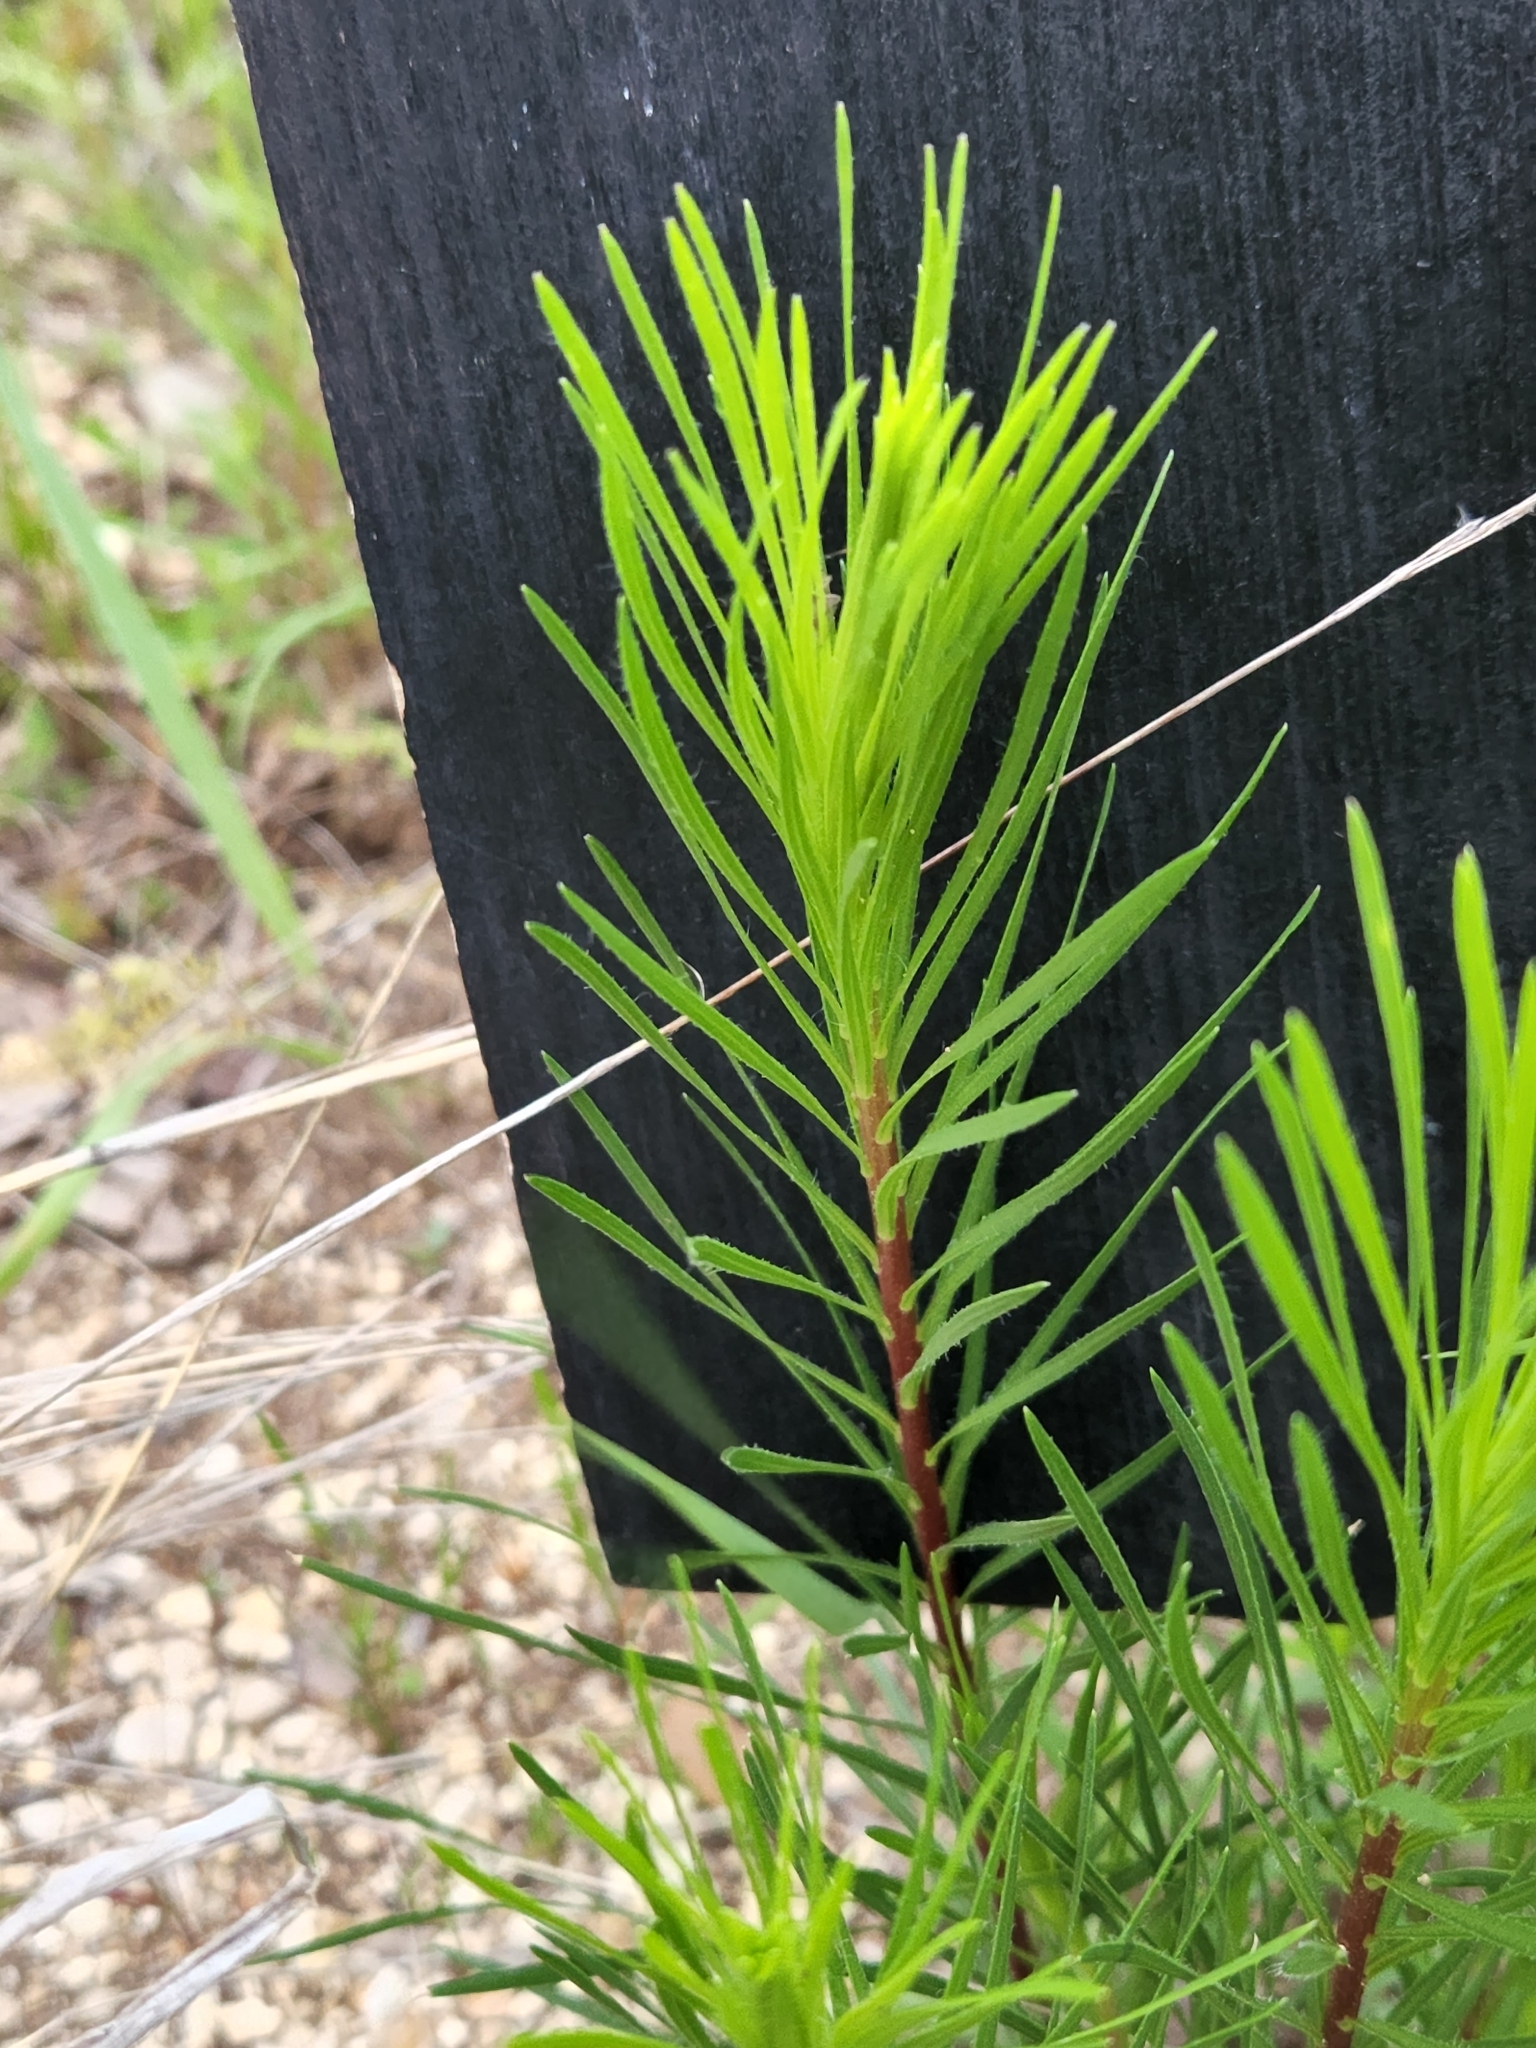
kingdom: Plantae
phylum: Tracheophyta
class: Magnoliopsida
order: Malpighiales
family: Euphorbiaceae
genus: Stillingia
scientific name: Stillingia texana
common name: Texas stillingia
